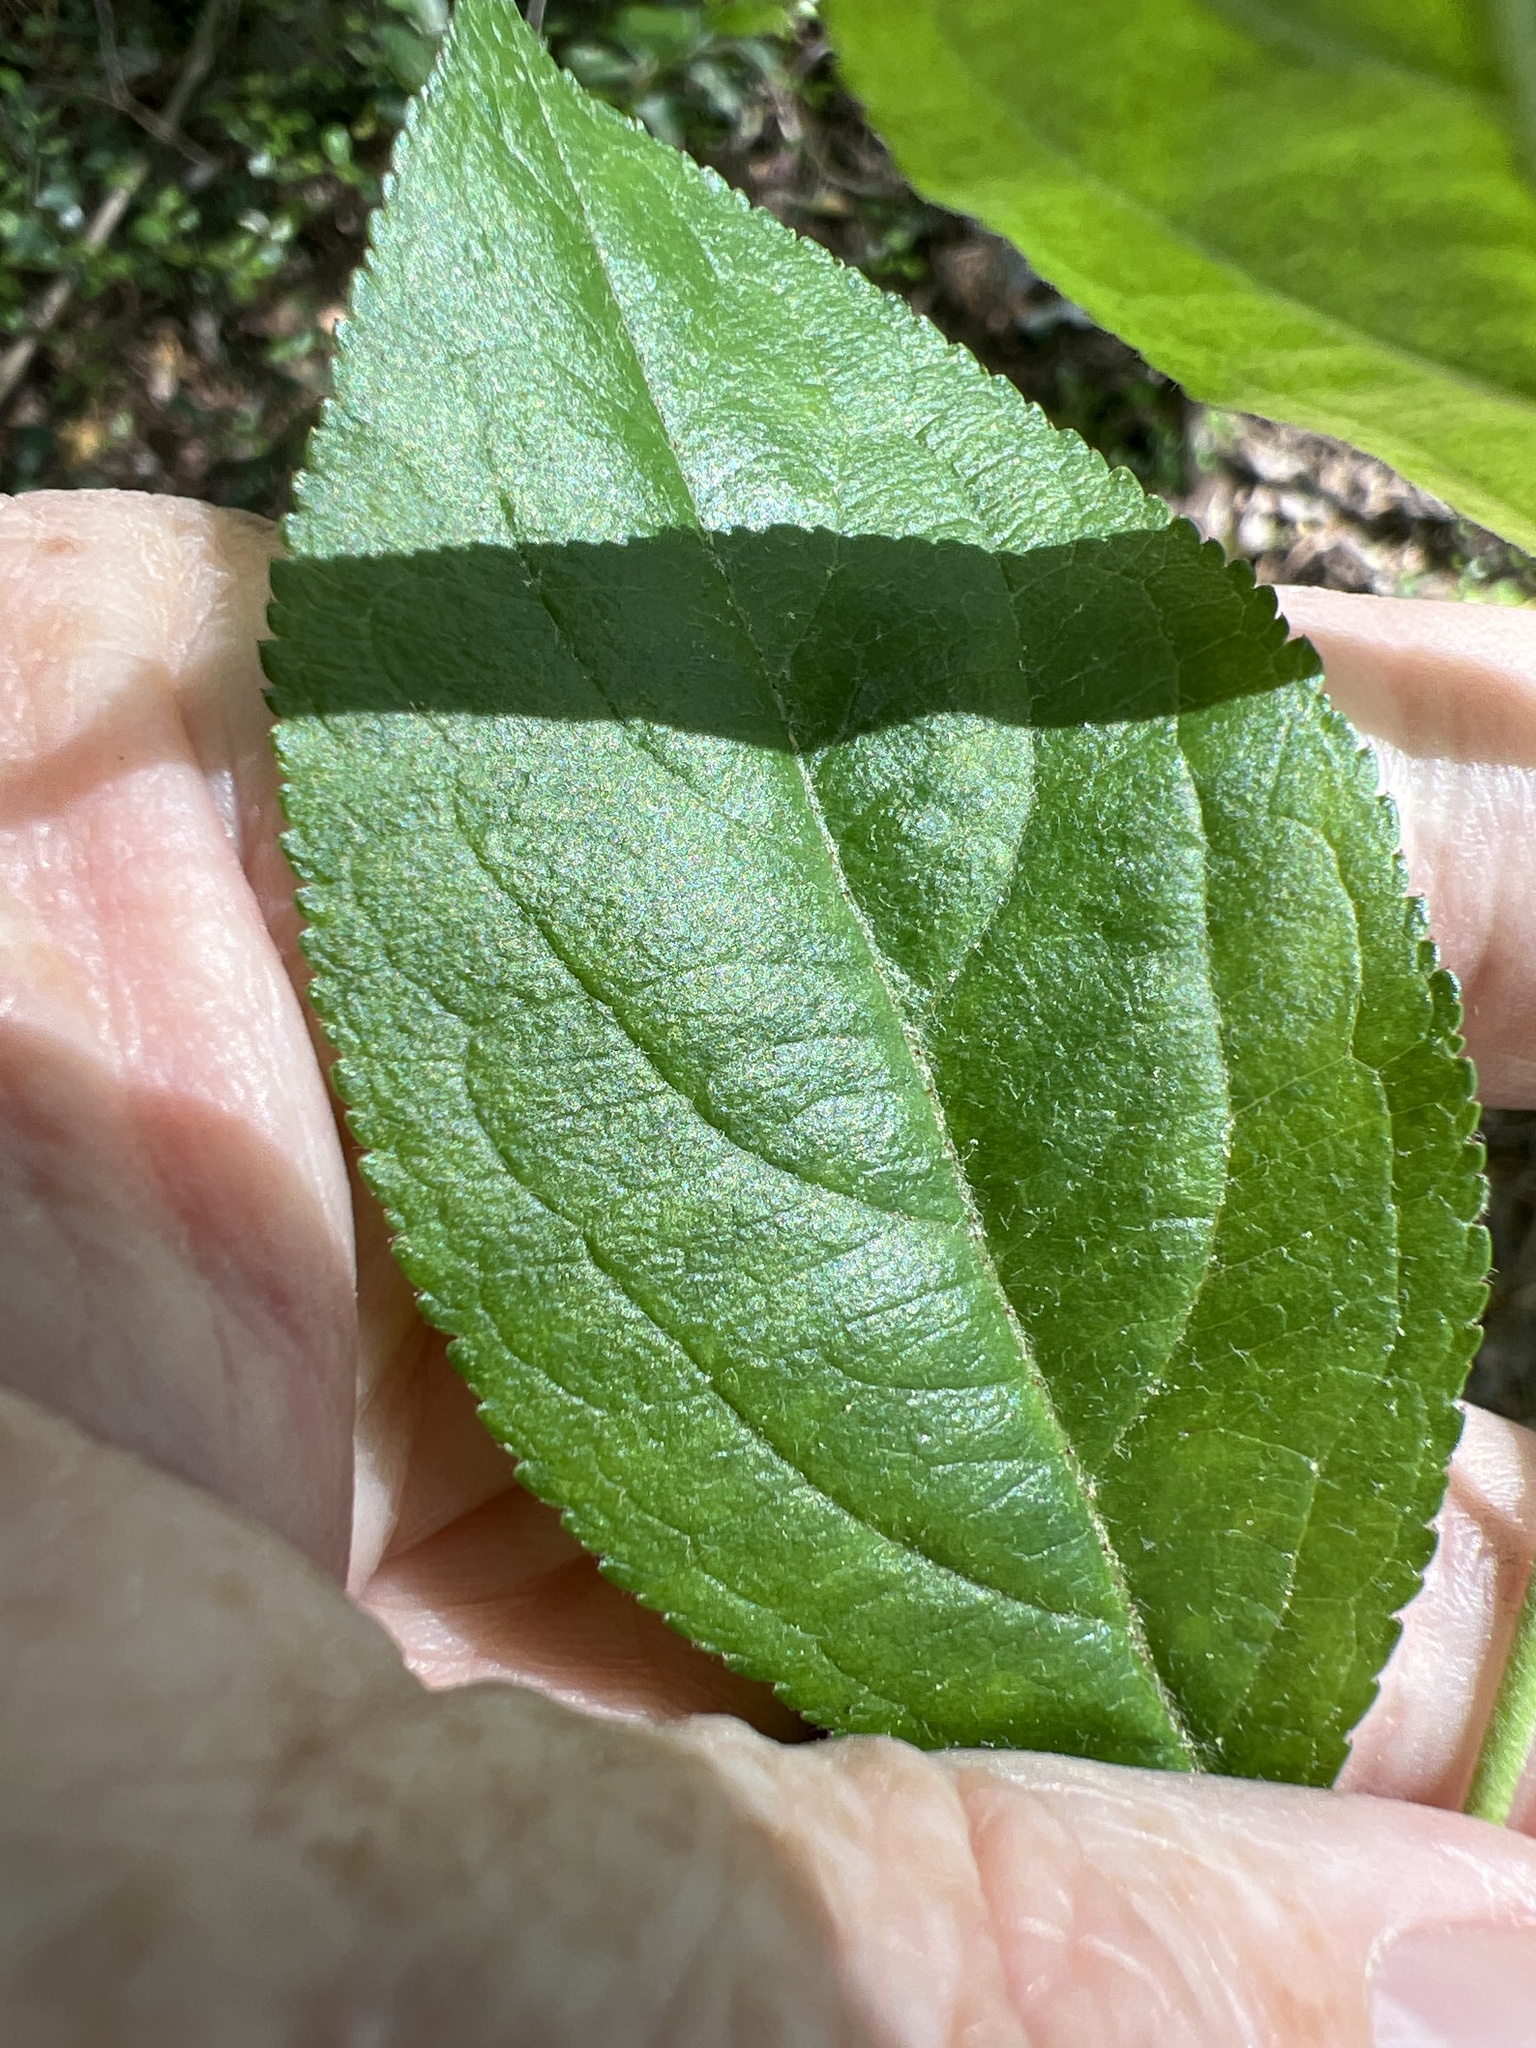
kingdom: Plantae
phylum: Tracheophyta
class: Magnoliopsida
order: Rosales
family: Rosaceae
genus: Aronia
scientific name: Aronia arbutifolia
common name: Red chokeberry
